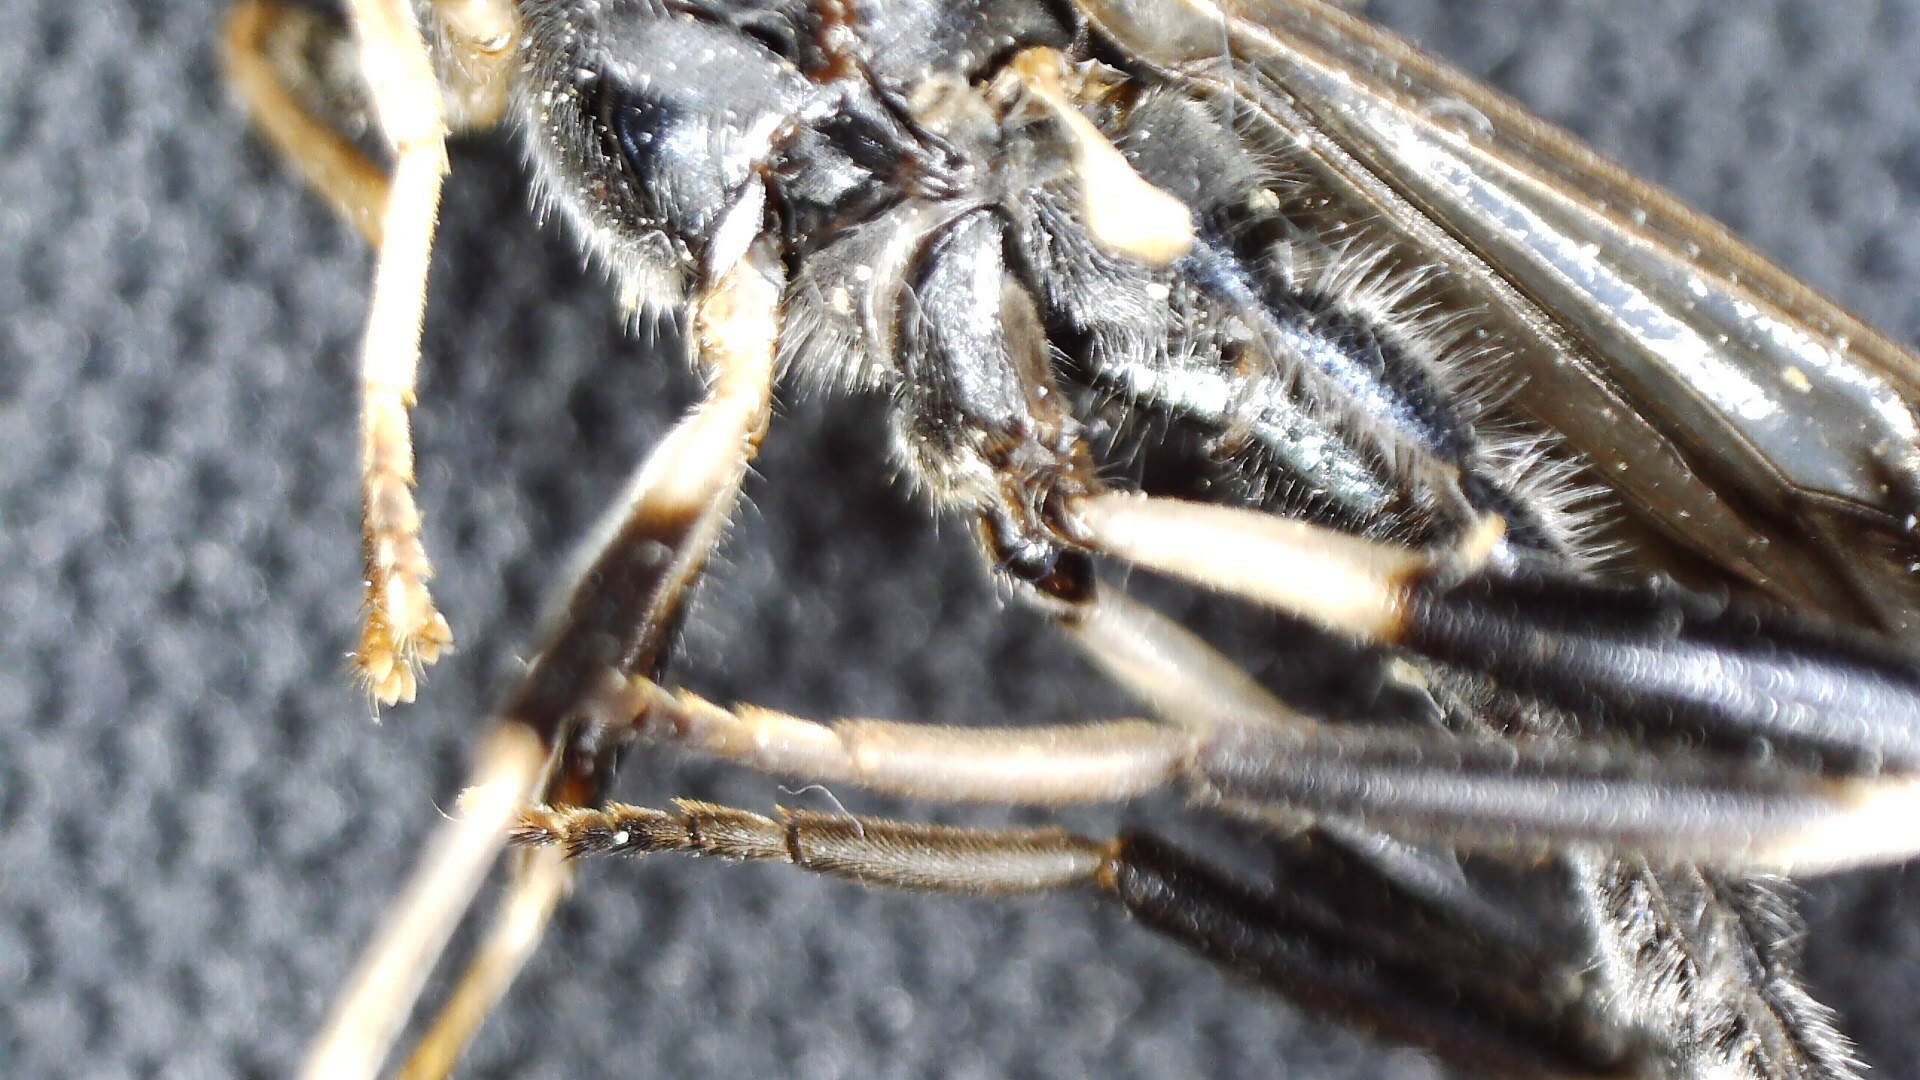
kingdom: Animalia
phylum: Arthropoda
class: Insecta
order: Diptera
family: Stratiomyidae
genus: Exaireta
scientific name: Exaireta spinigera
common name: Blue soldier fly
